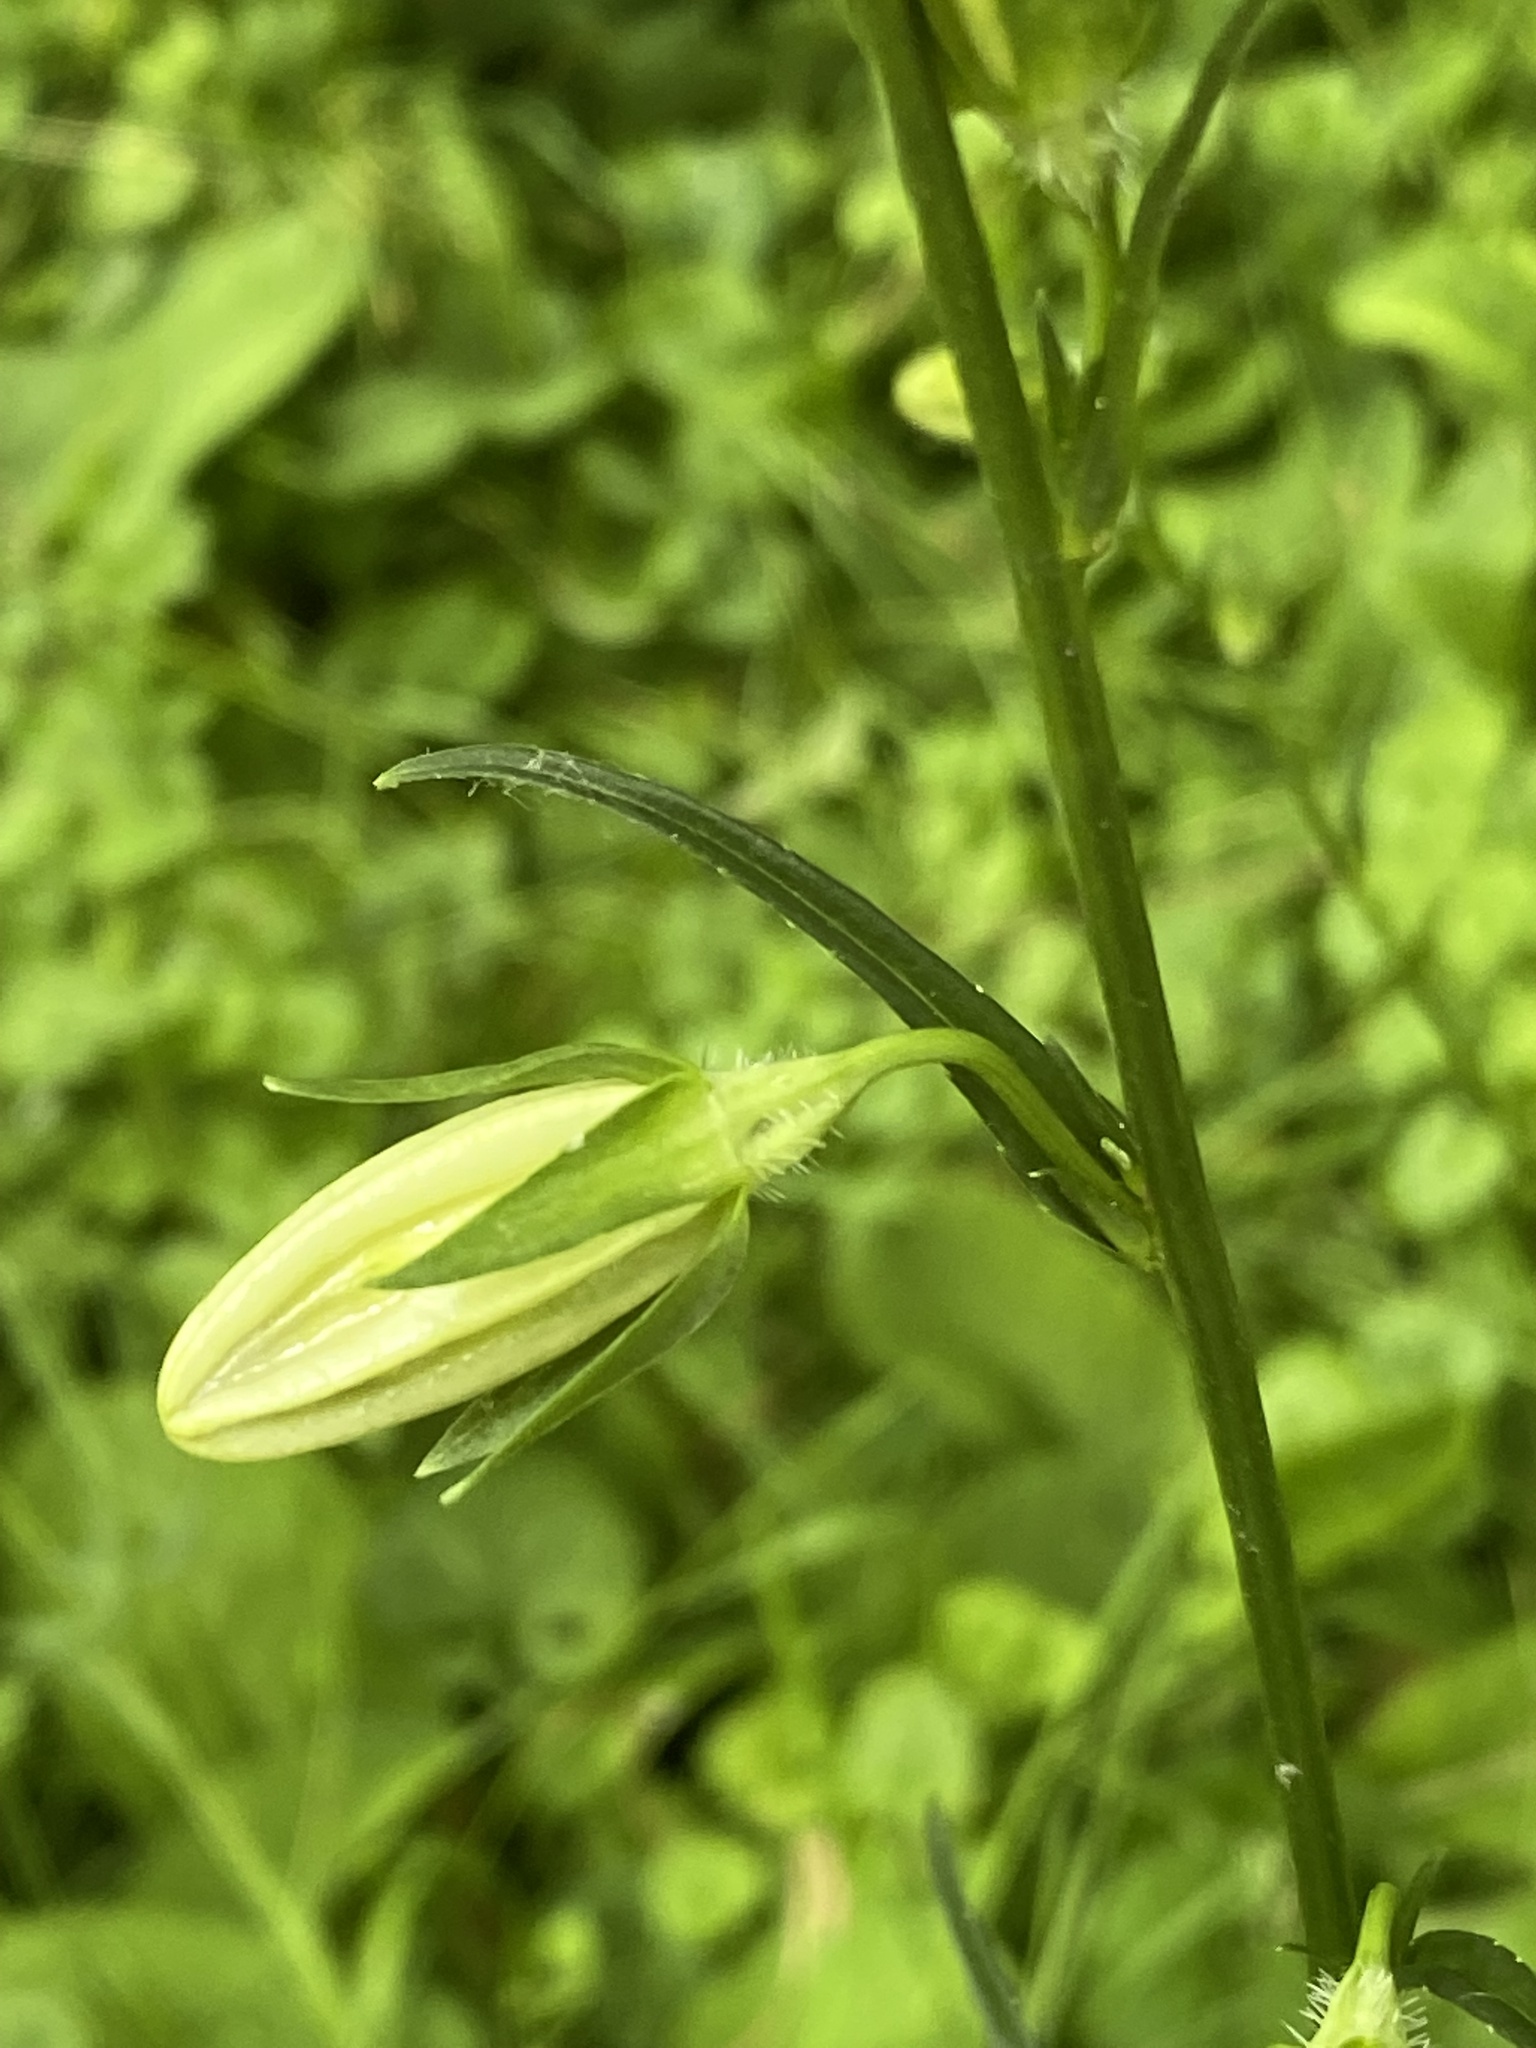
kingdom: Plantae
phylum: Tracheophyta
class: Magnoliopsida
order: Asterales
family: Campanulaceae
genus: Campanula
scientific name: Campanula persicifolia
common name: Peach-leaved bellflower
